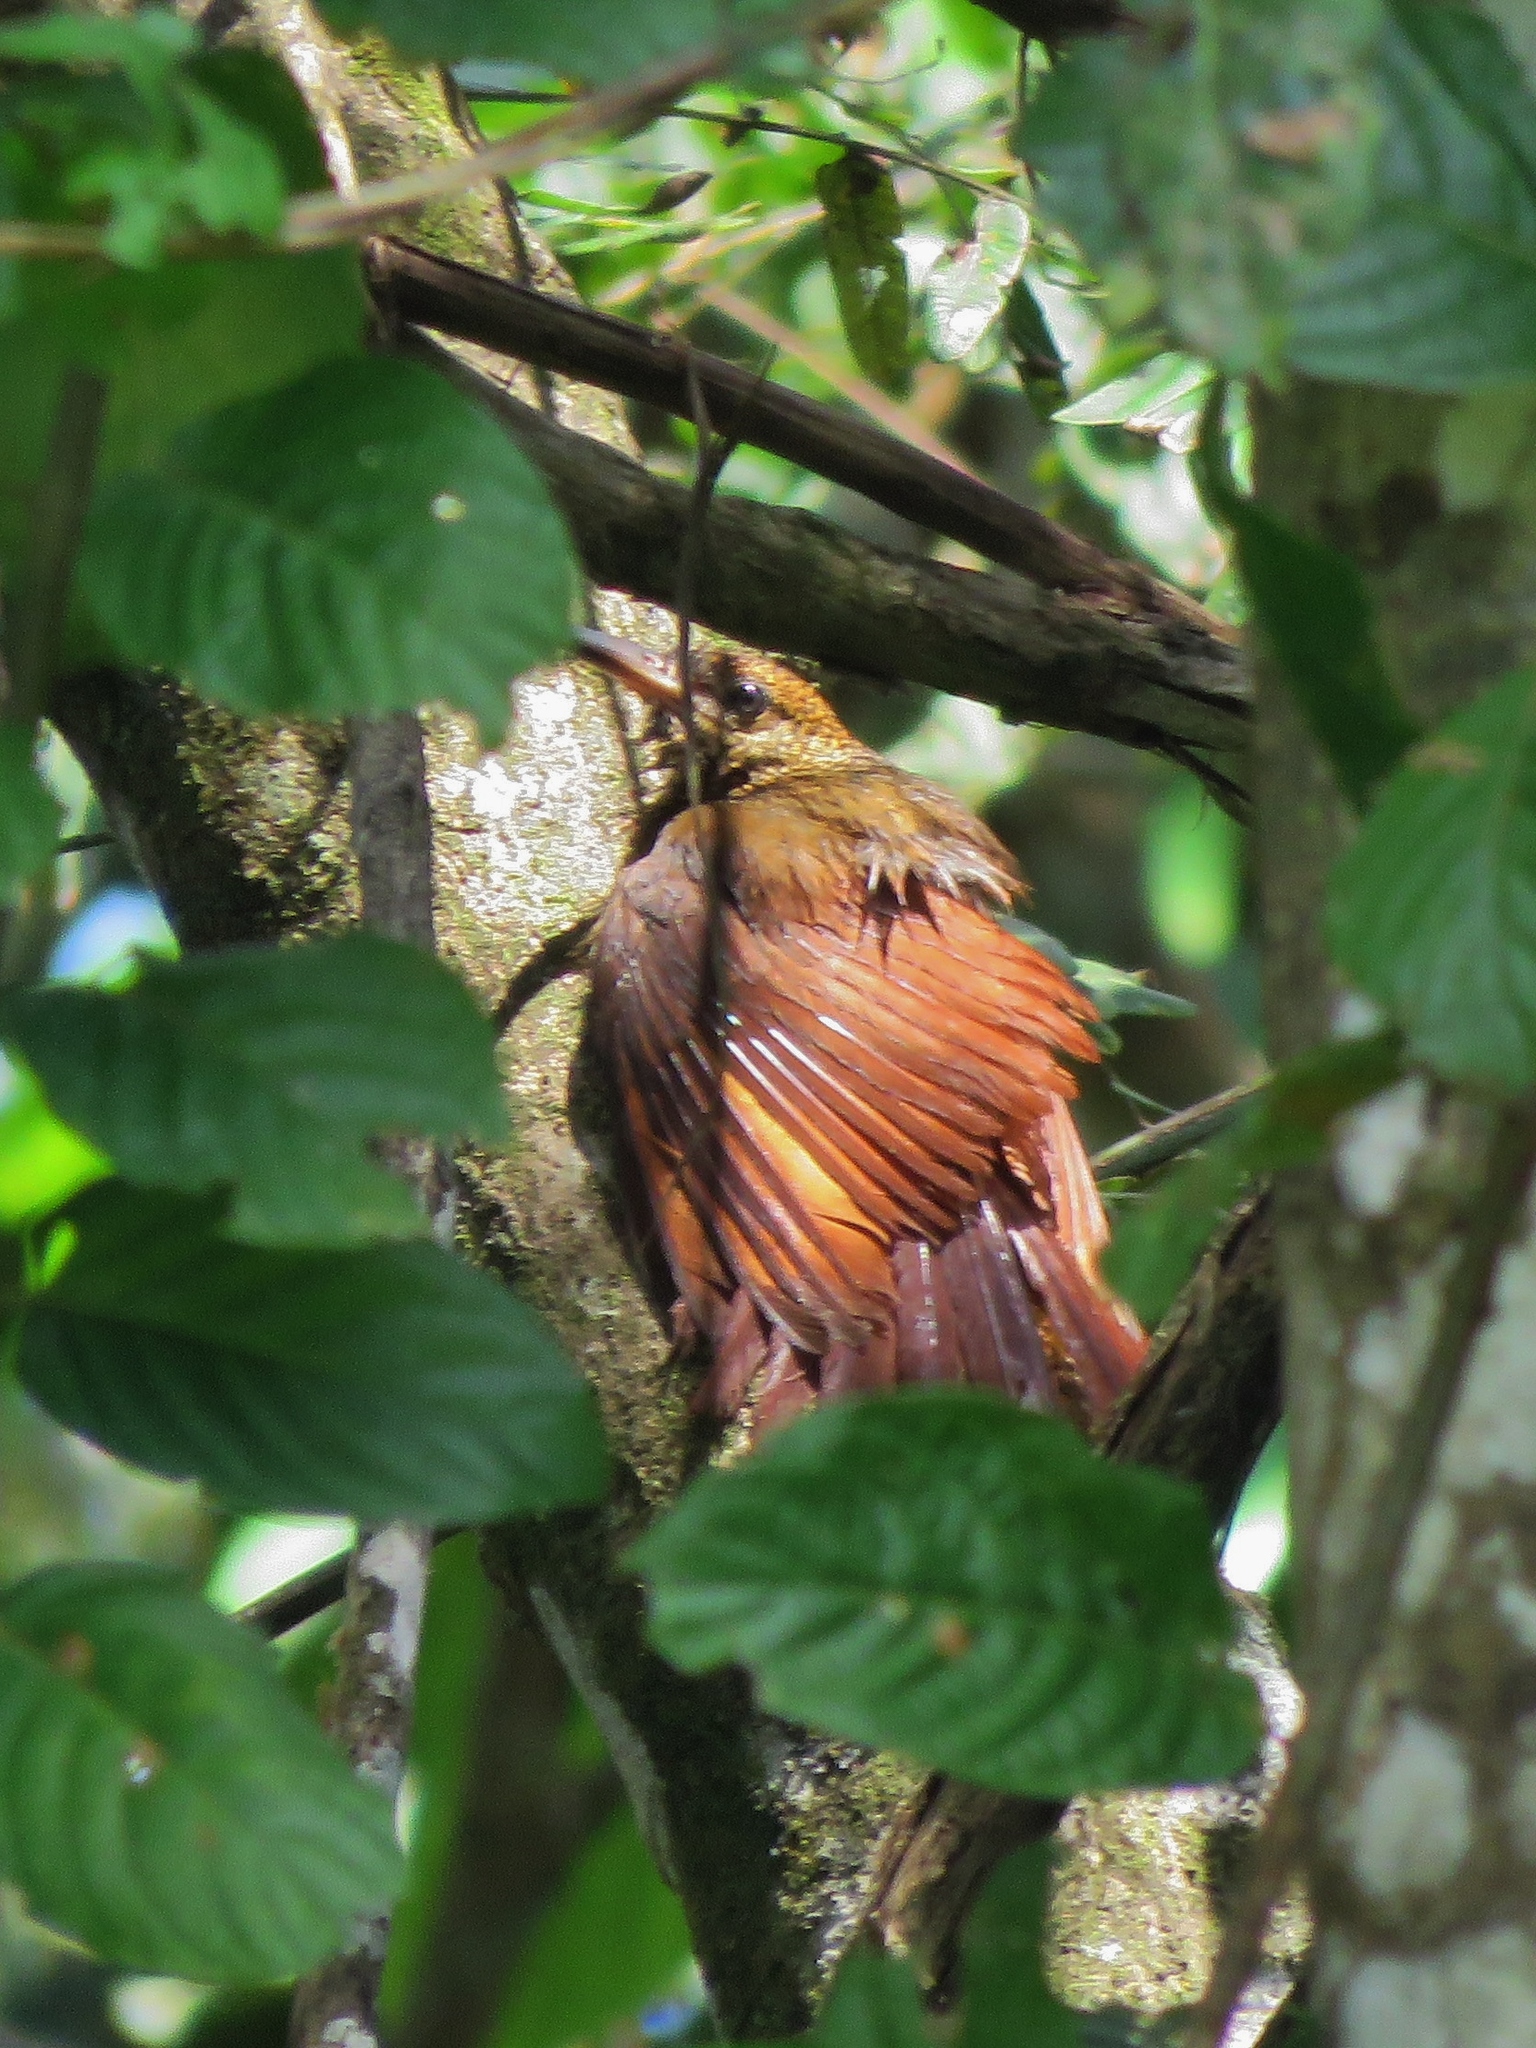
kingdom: Animalia
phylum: Chordata
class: Aves
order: Passeriformes
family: Furnariidae
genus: Dendrocolaptes
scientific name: Dendrocolaptes sanctithomae
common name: Northern barred-woodcreeper
